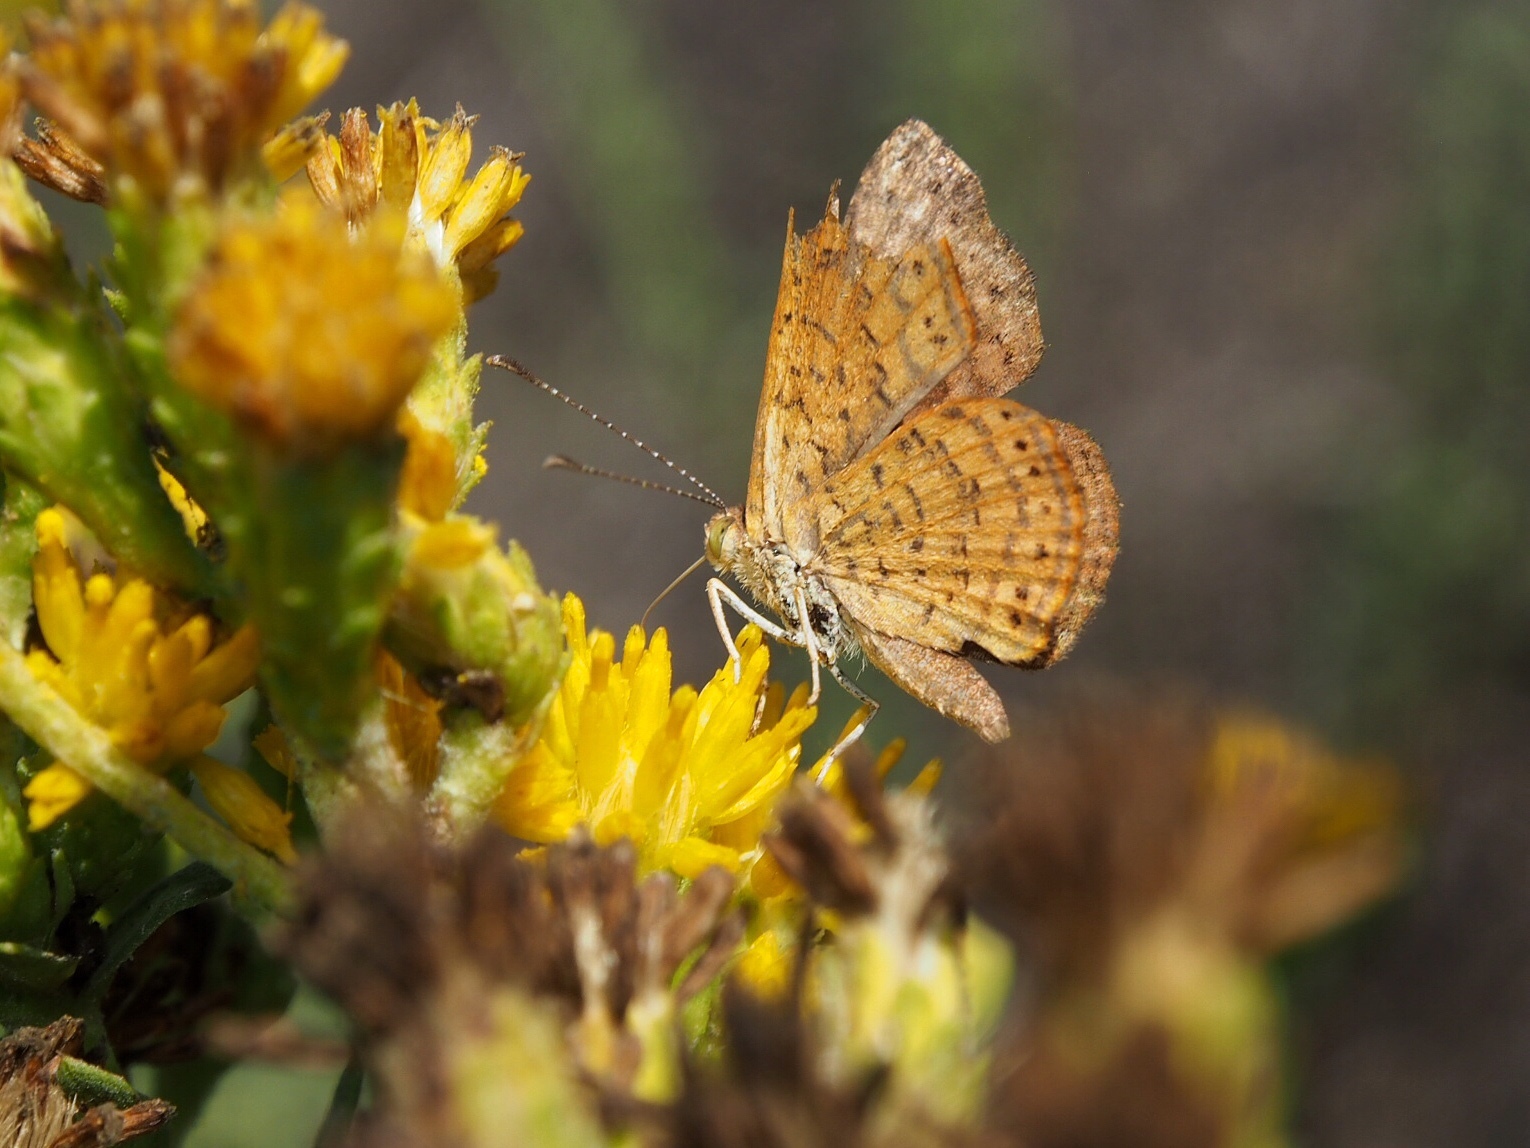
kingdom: Animalia
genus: Calephelis
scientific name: Calephelis nemesis
